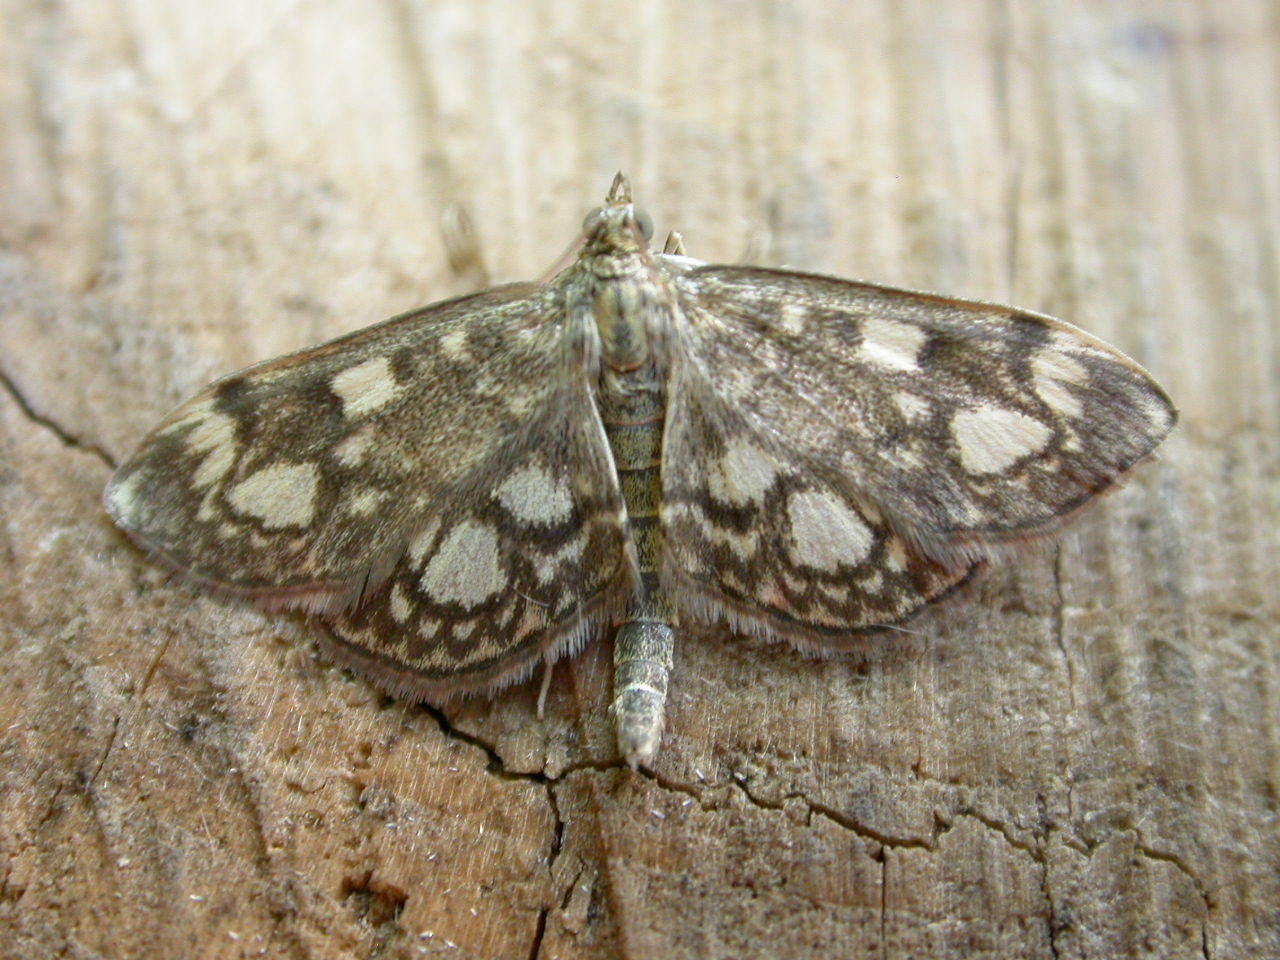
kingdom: Animalia
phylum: Arthropoda
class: Insecta
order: Lepidoptera
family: Crambidae
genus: Anania
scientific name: Anania coronata
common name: Elder pearl
